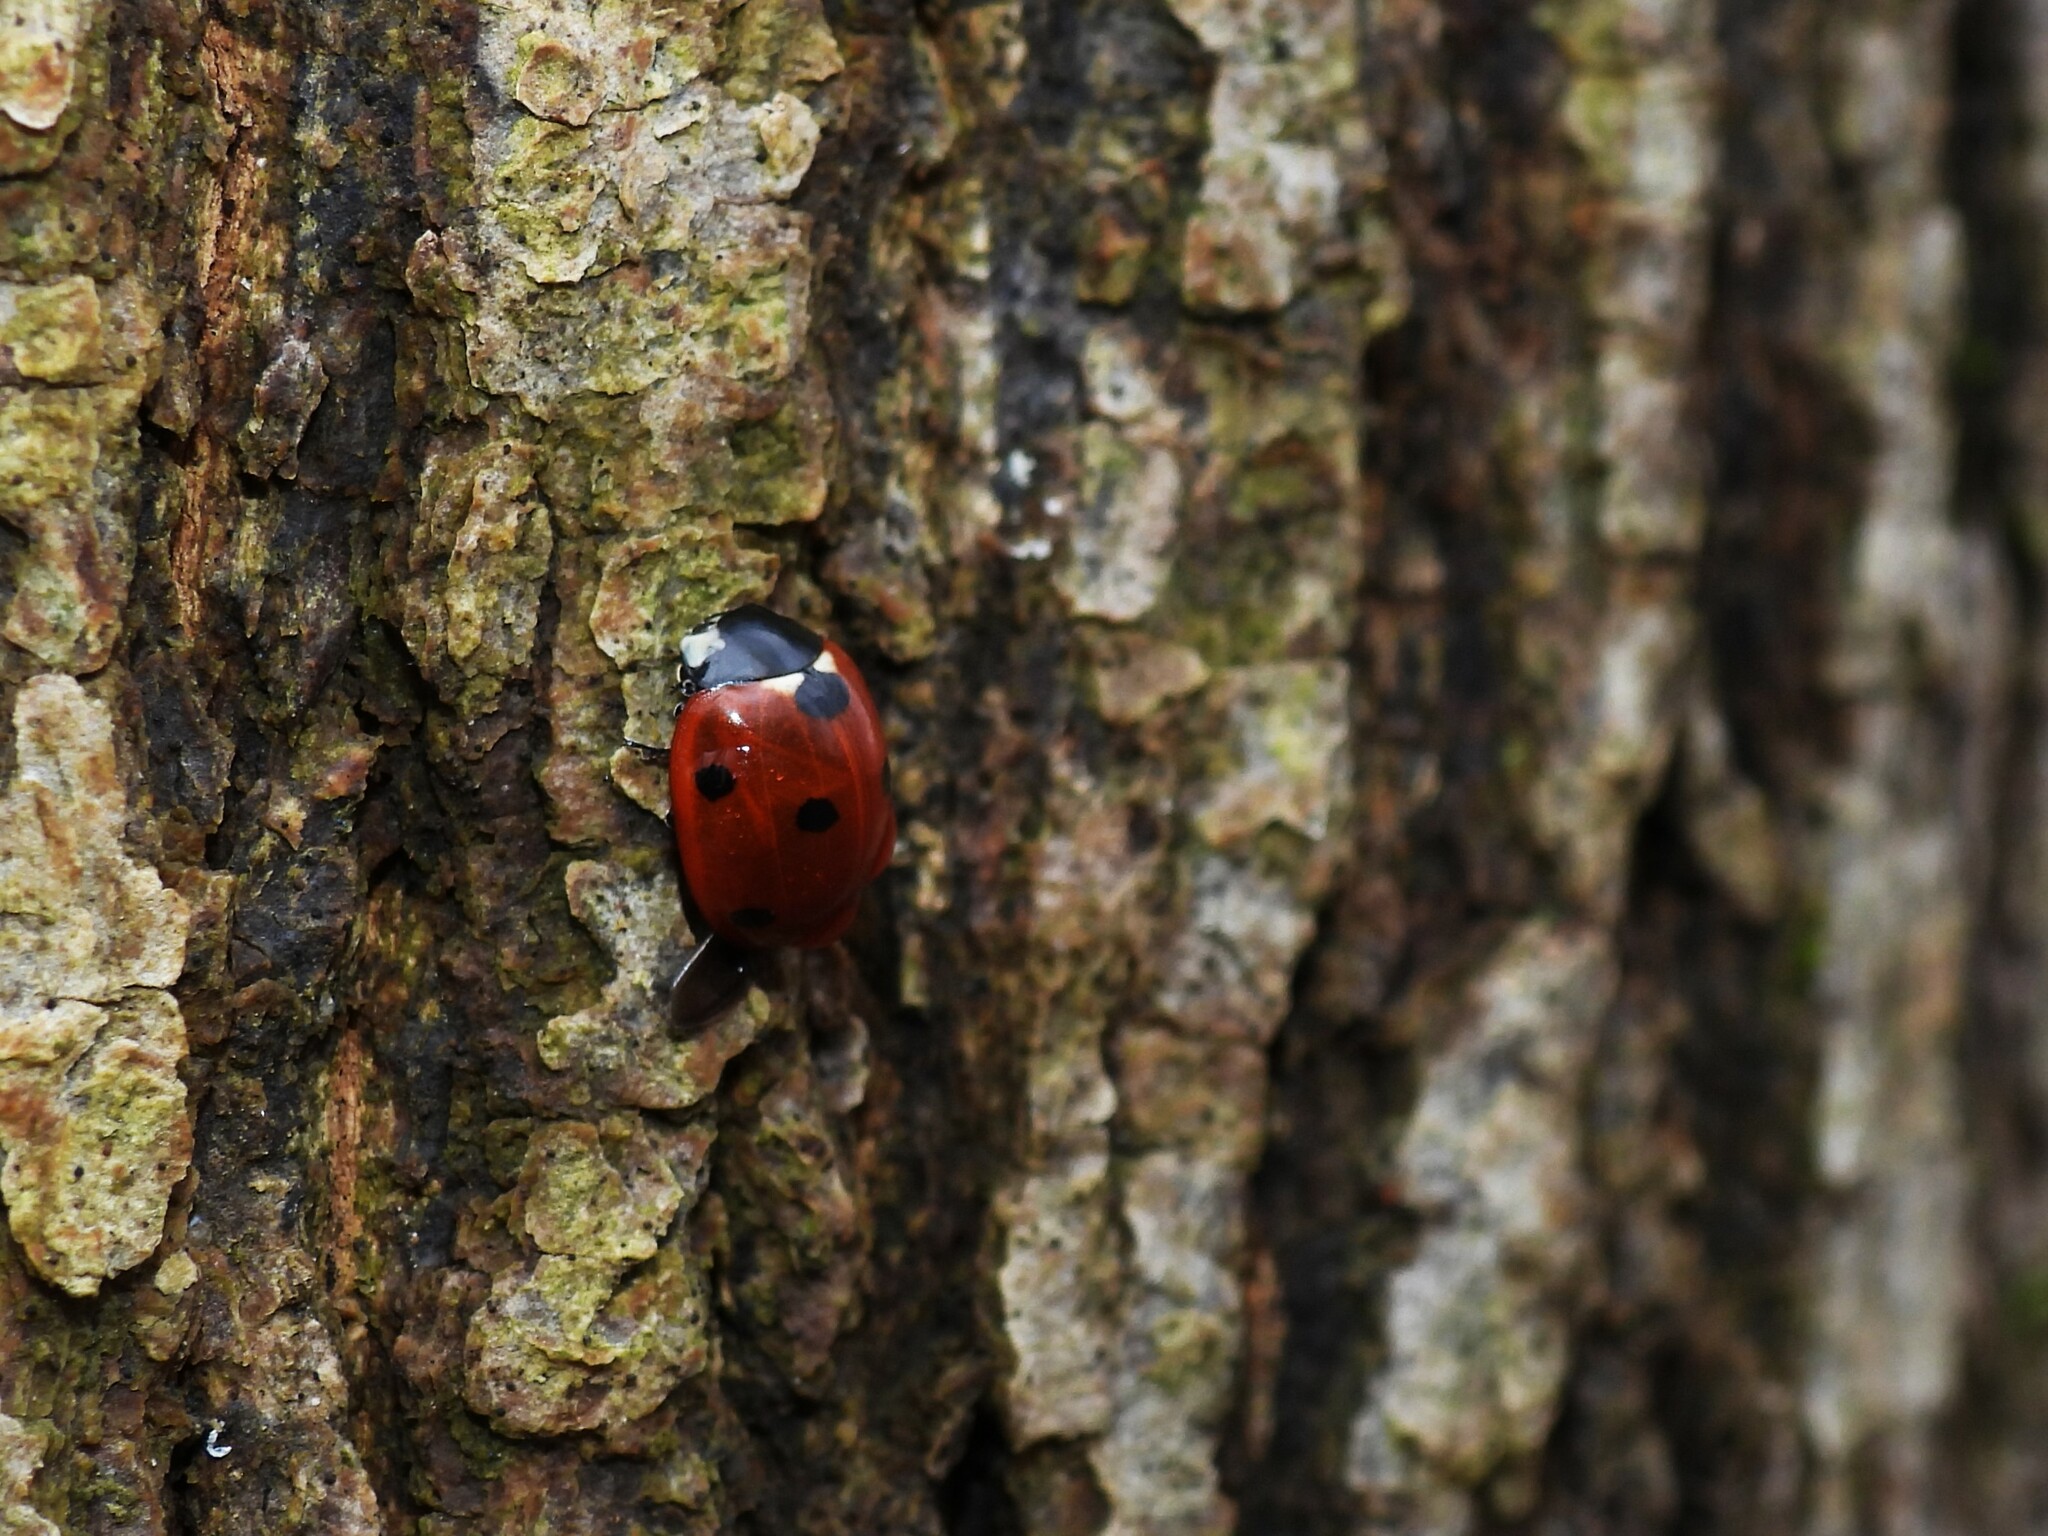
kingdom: Animalia
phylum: Arthropoda
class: Insecta
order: Coleoptera
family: Coccinellidae
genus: Coccinella
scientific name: Coccinella septempunctata
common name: Sevenspotted lady beetle
